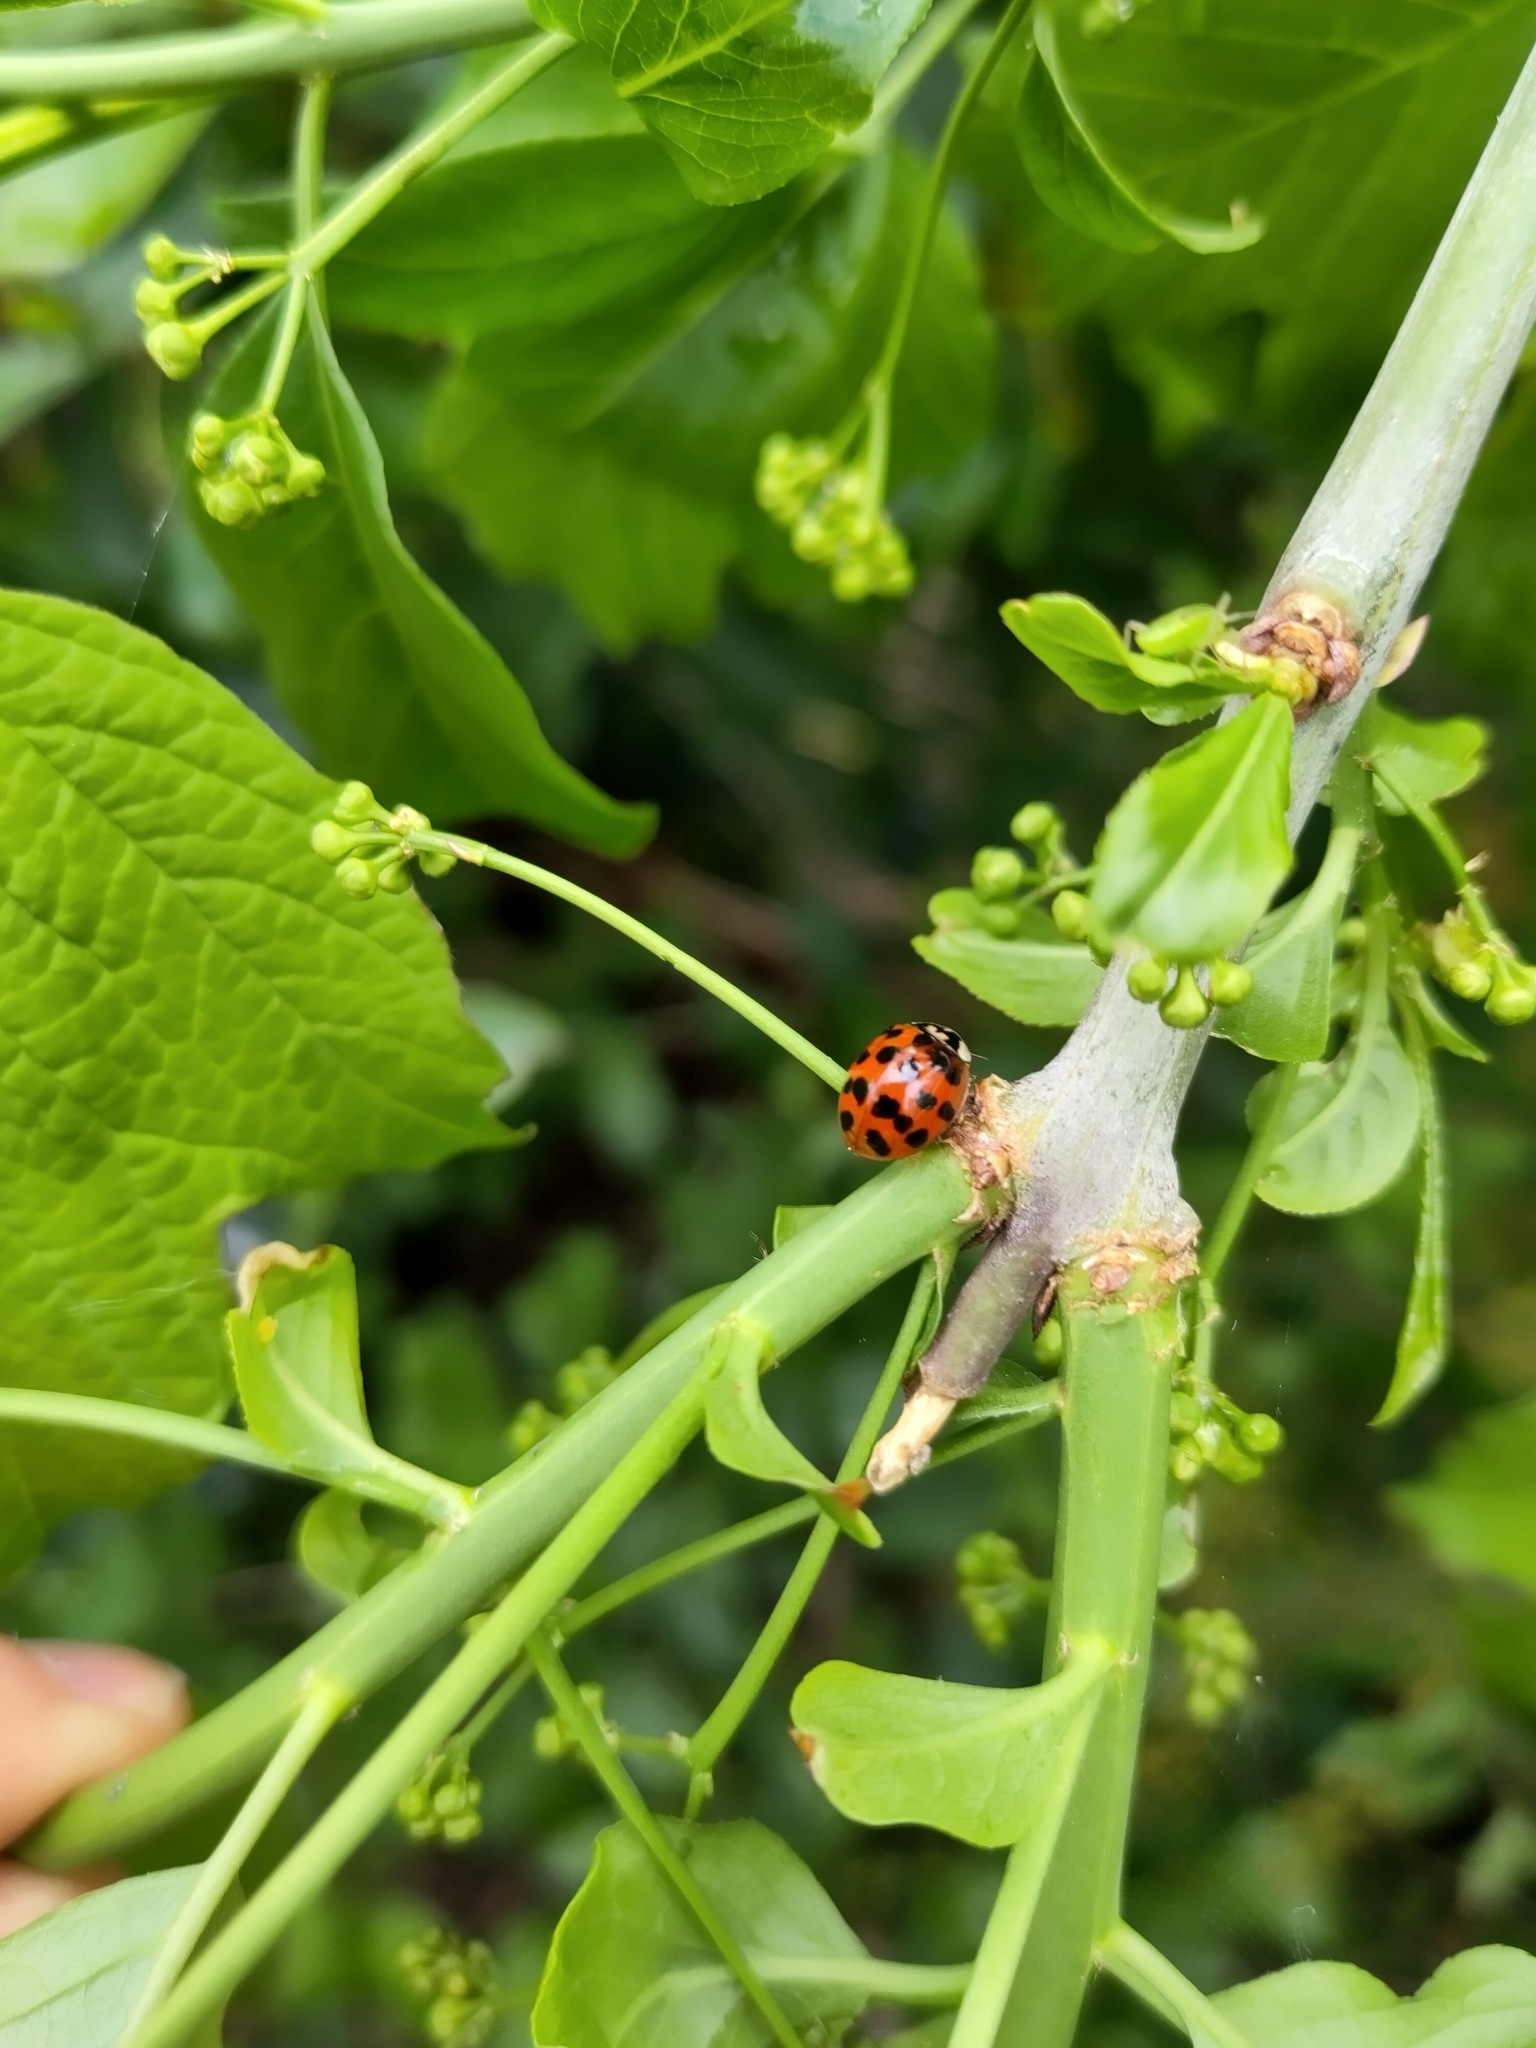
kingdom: Animalia
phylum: Arthropoda
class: Insecta
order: Coleoptera
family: Coccinellidae
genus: Harmonia
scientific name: Harmonia axyridis
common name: Harlequin ladybird
